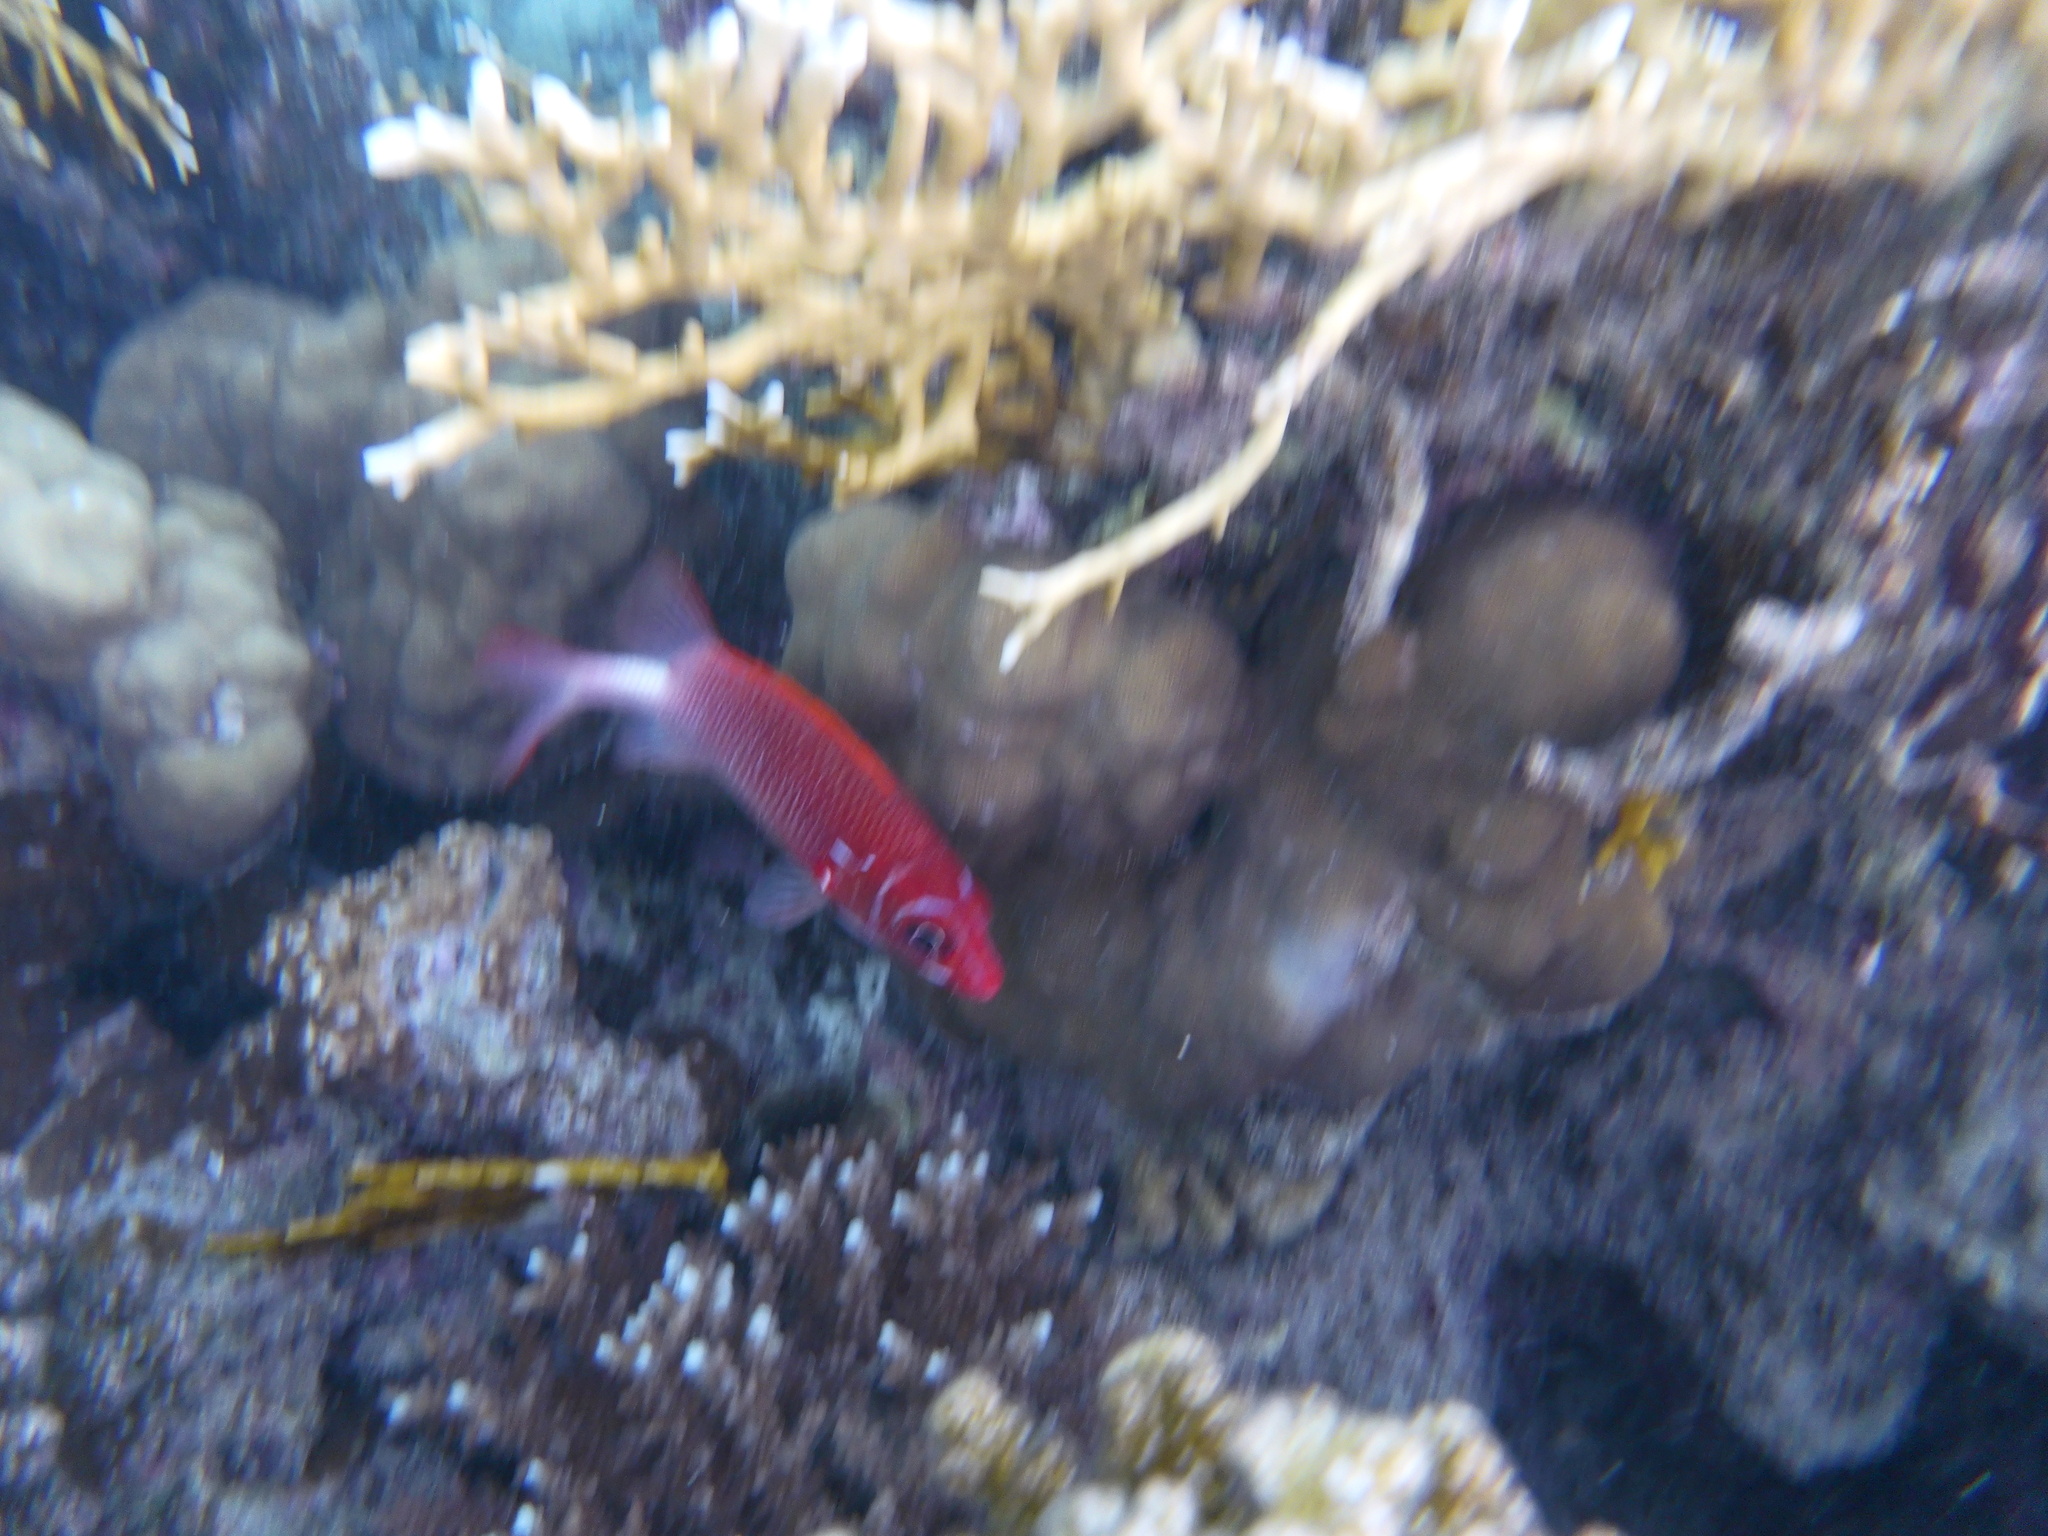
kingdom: Animalia
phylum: Chordata
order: Beryciformes
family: Holocentridae
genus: Sargocentron
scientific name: Sargocentron caudimaculatum
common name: Fanfin soldier
